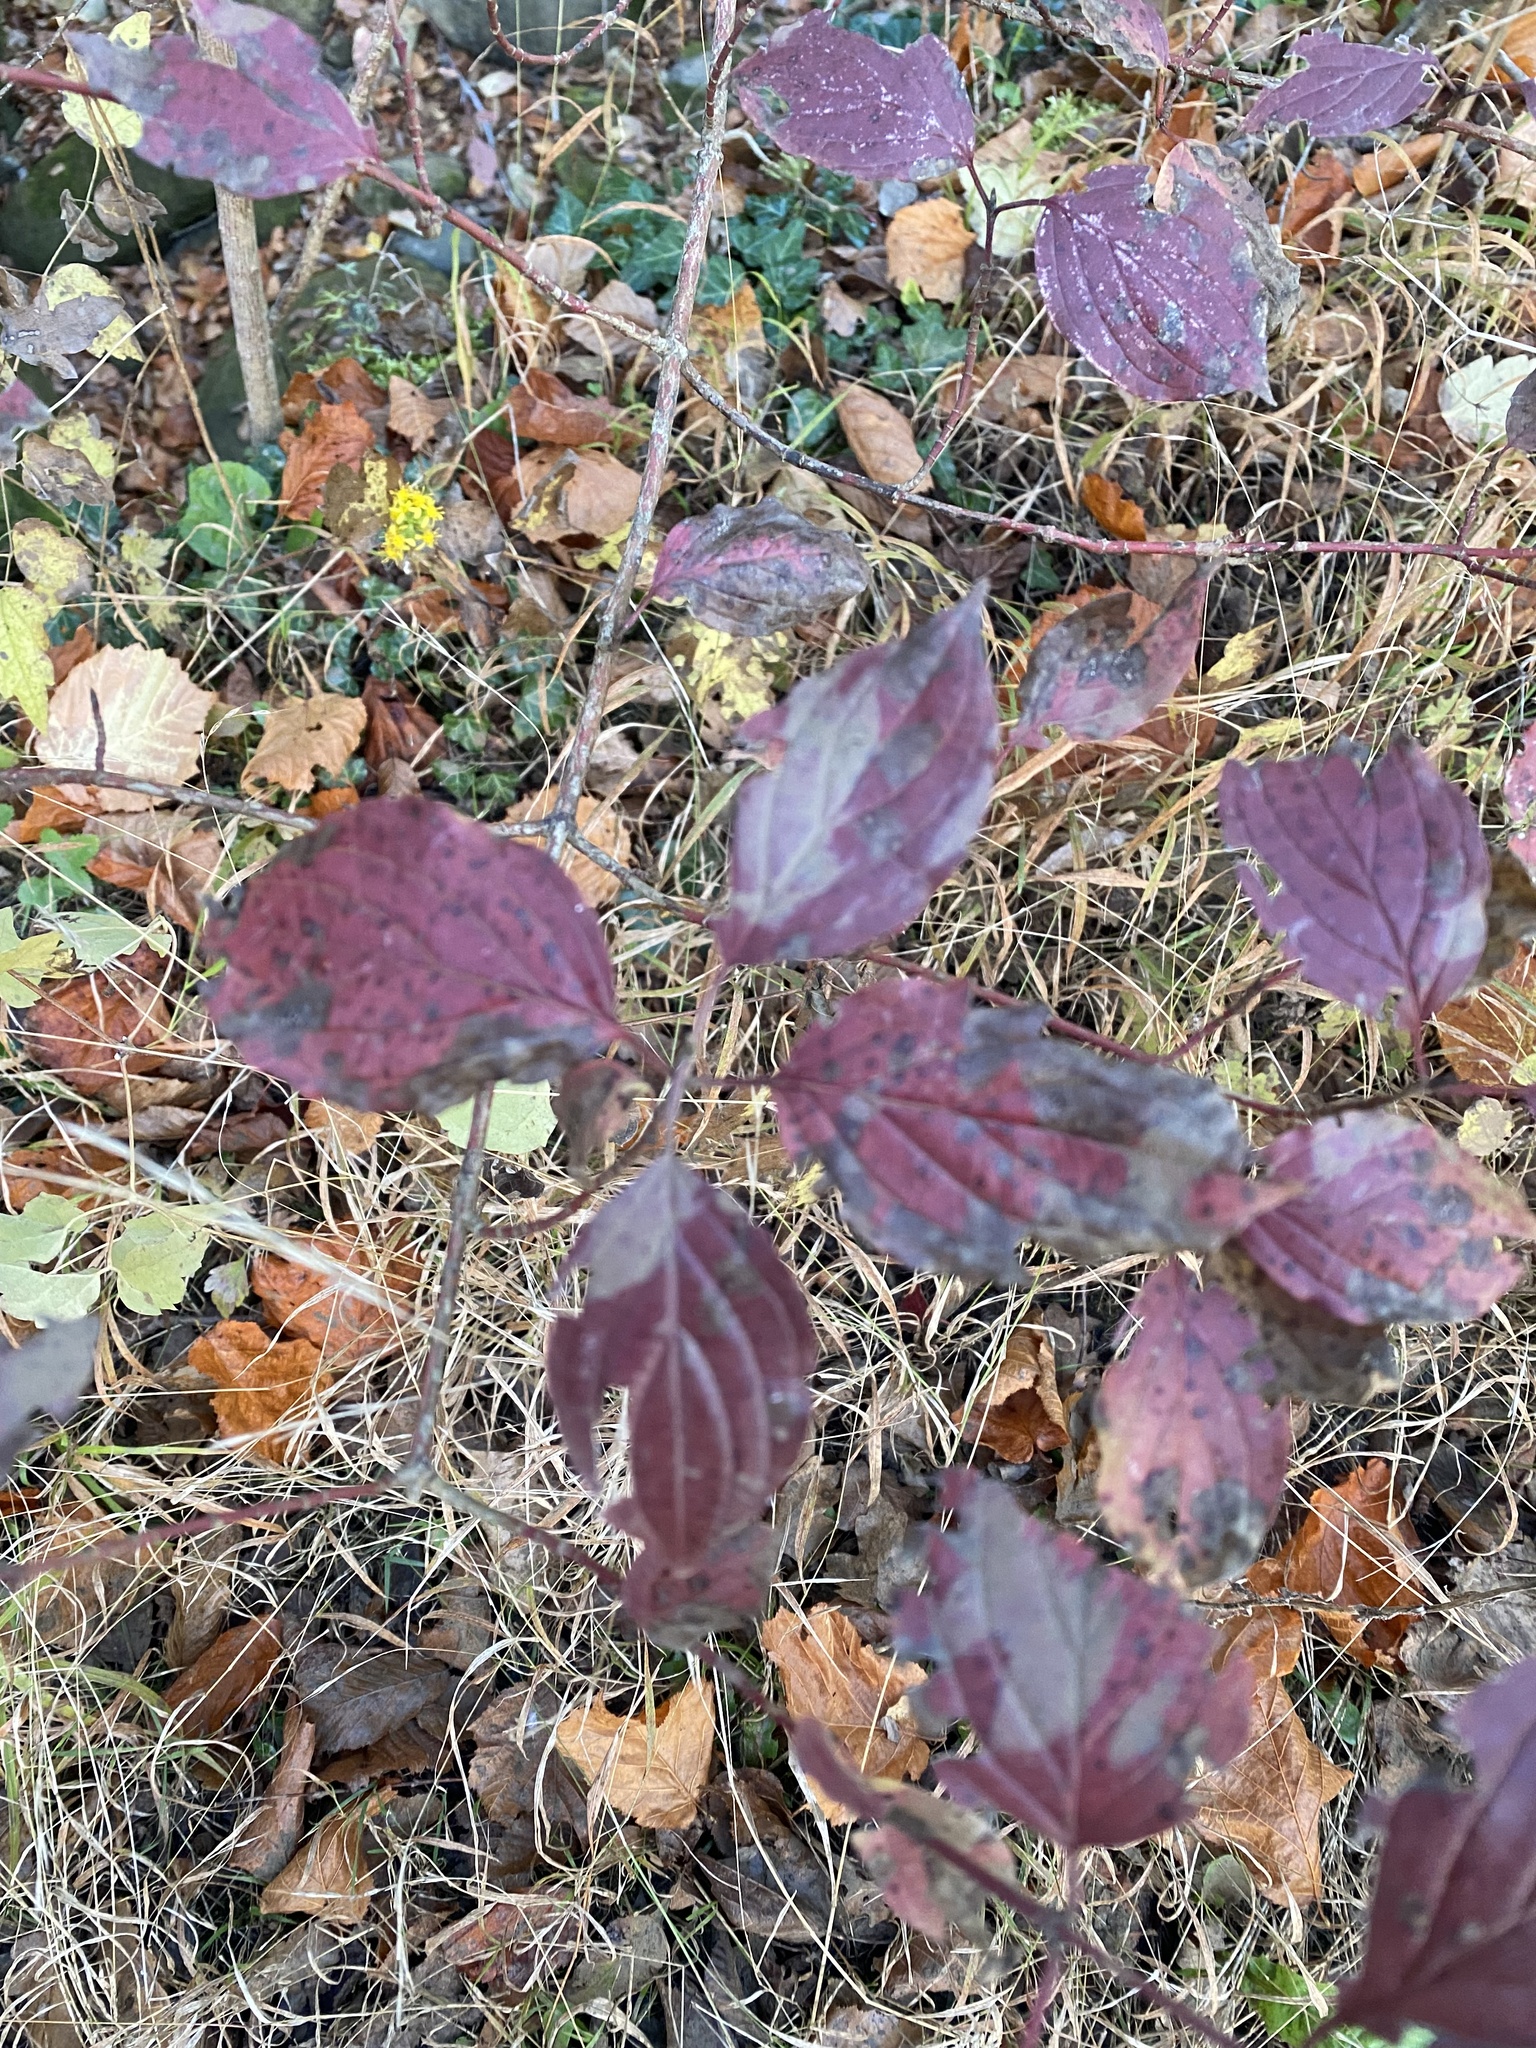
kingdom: Plantae
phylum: Tracheophyta
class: Magnoliopsida
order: Cornales
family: Cornaceae
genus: Cornus
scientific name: Cornus sanguinea
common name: Dogwood
